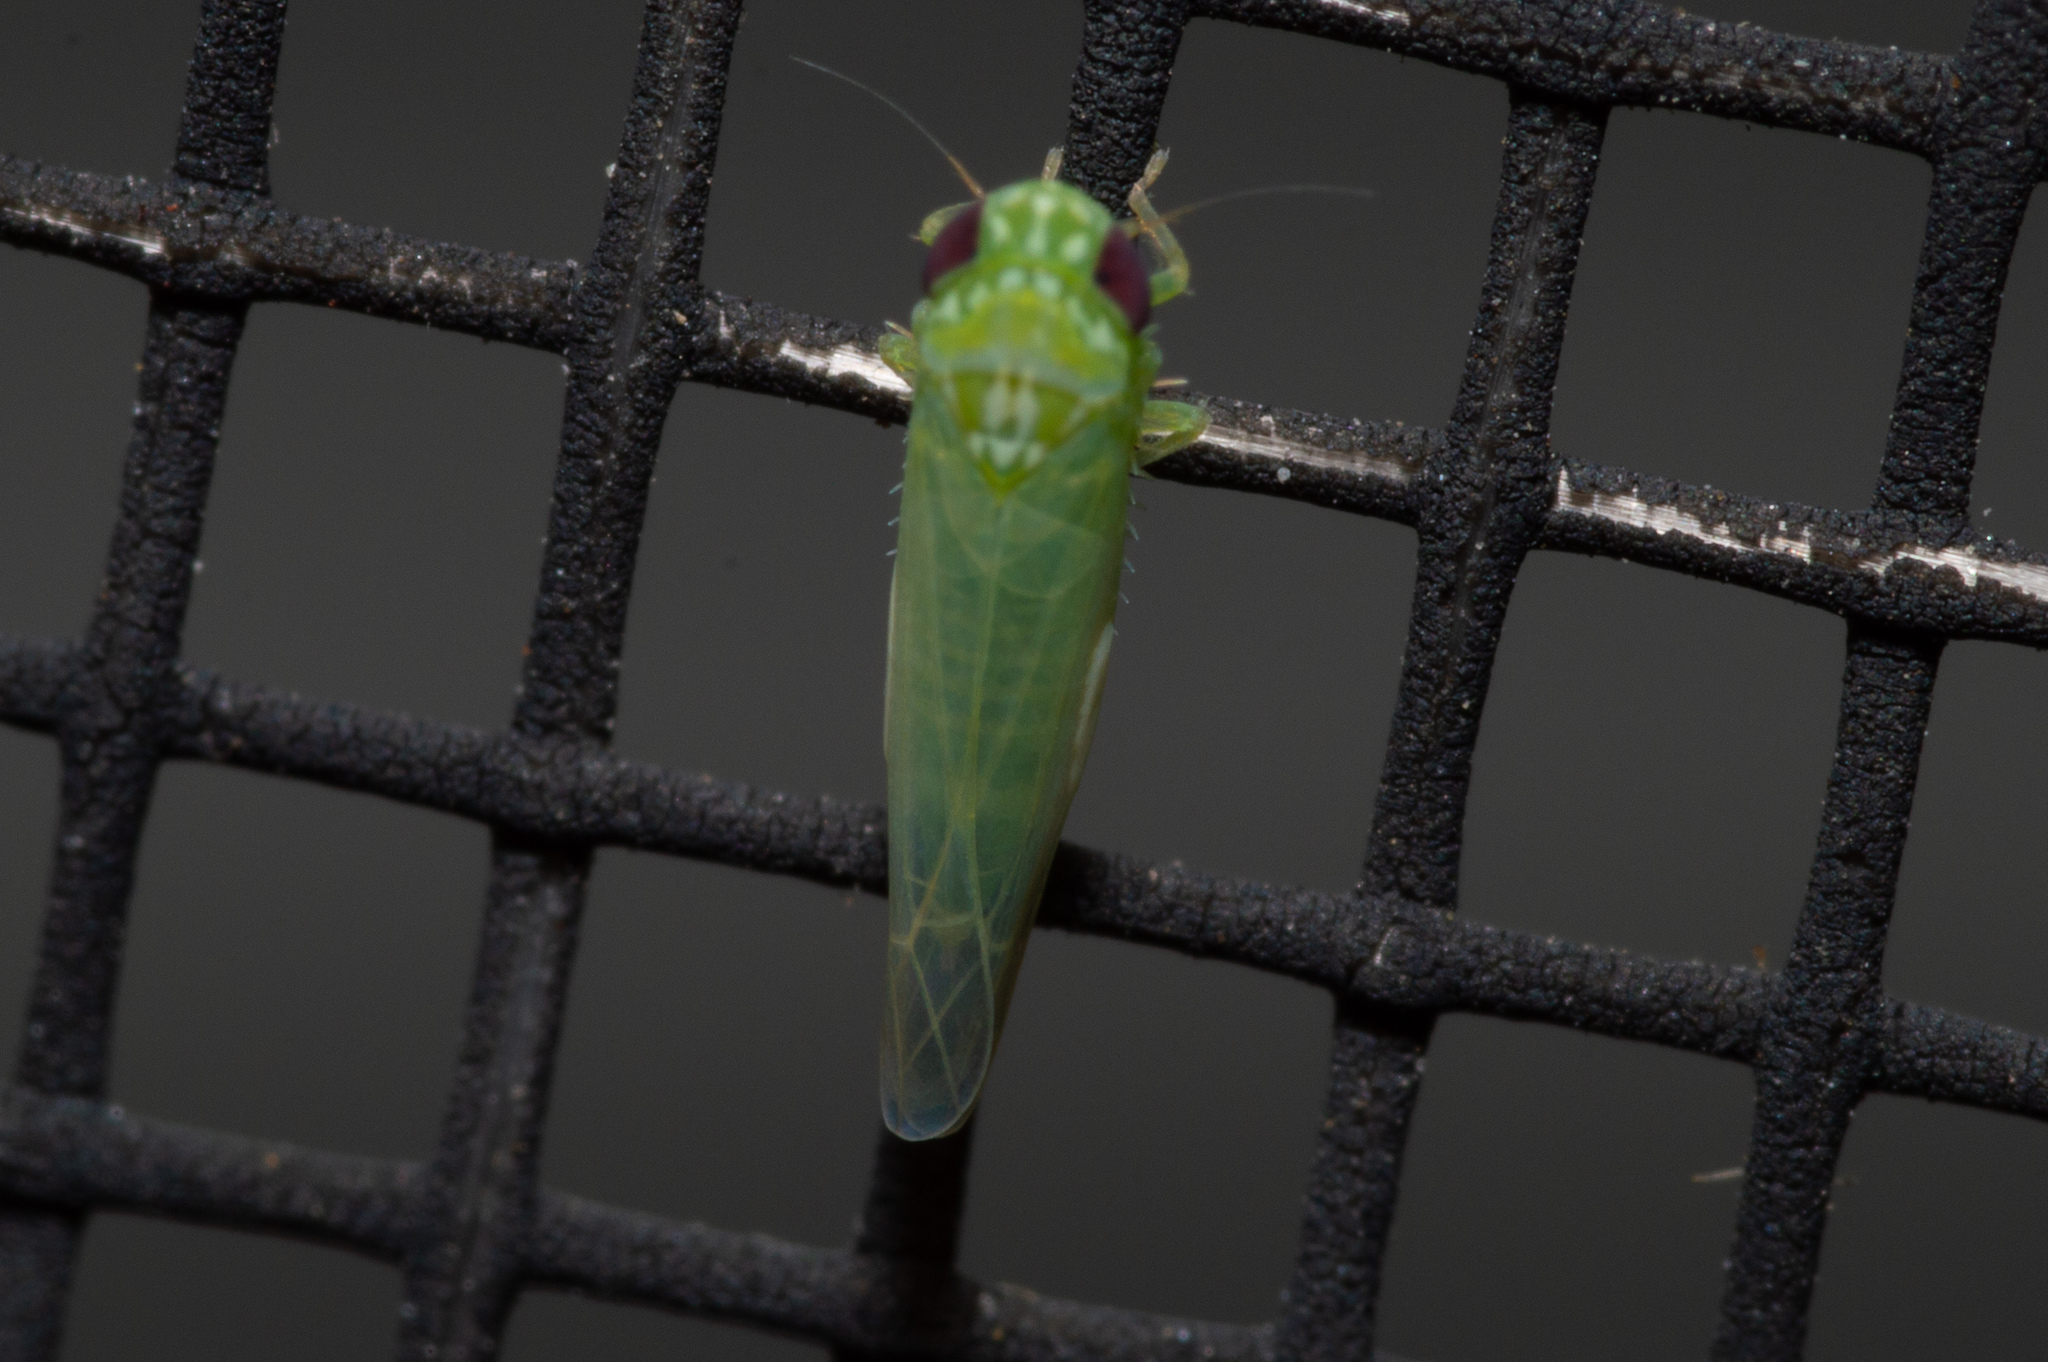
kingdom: Animalia
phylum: Arthropoda
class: Insecta
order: Hemiptera
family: Cicadellidae
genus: Empoasca
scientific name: Empoasca fabae
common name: Potato leafhopper
